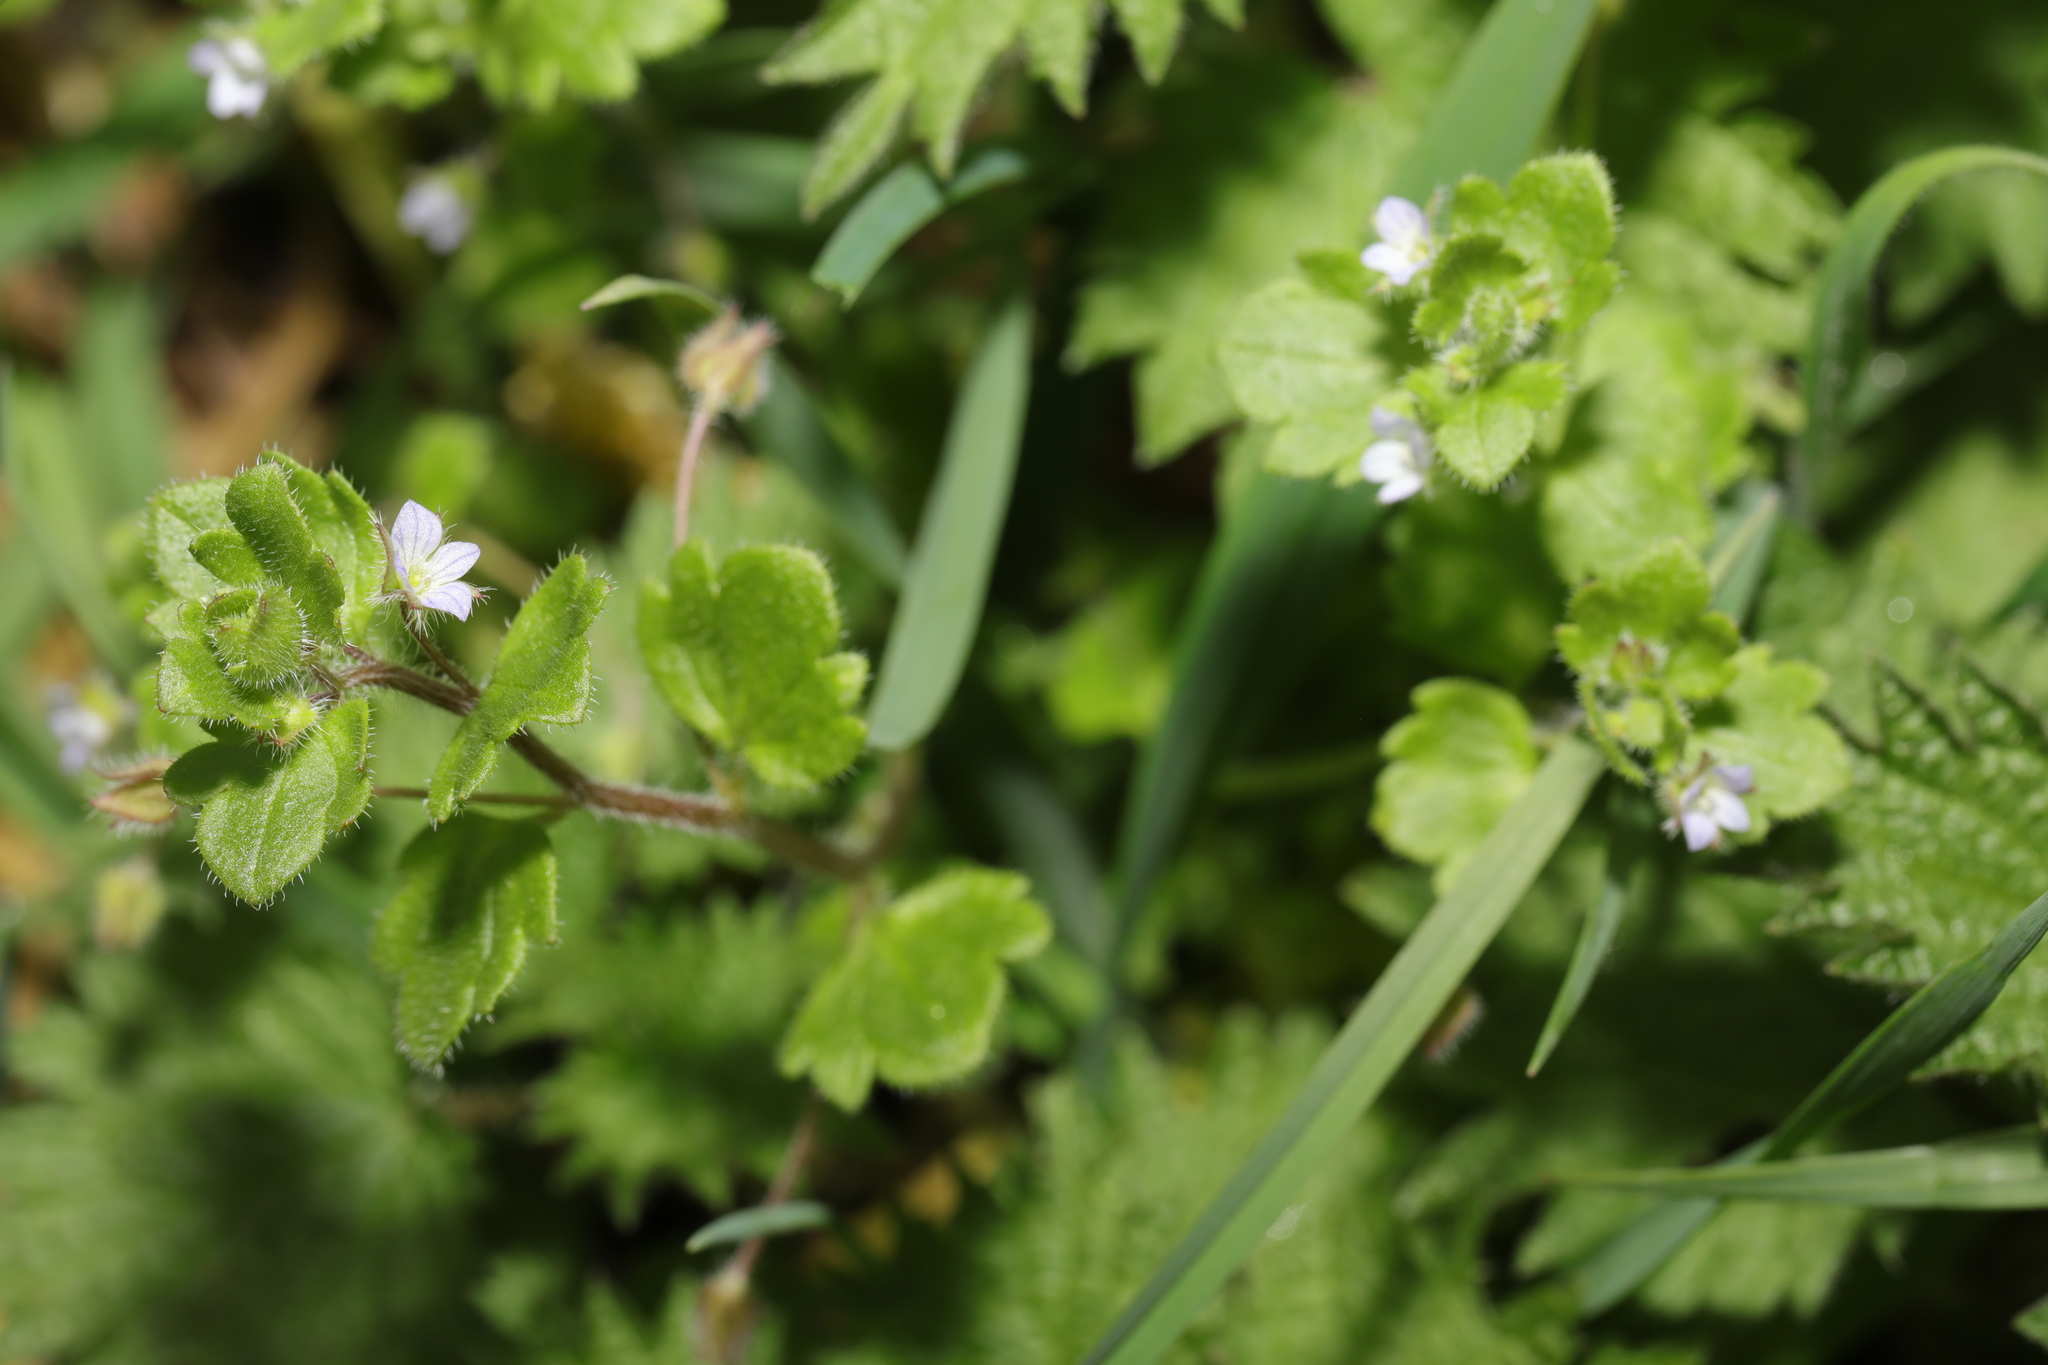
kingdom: Plantae
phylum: Tracheophyta
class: Magnoliopsida
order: Lamiales
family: Plantaginaceae
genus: Veronica
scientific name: Veronica sublobata
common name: False ivy-leaved speedwell
